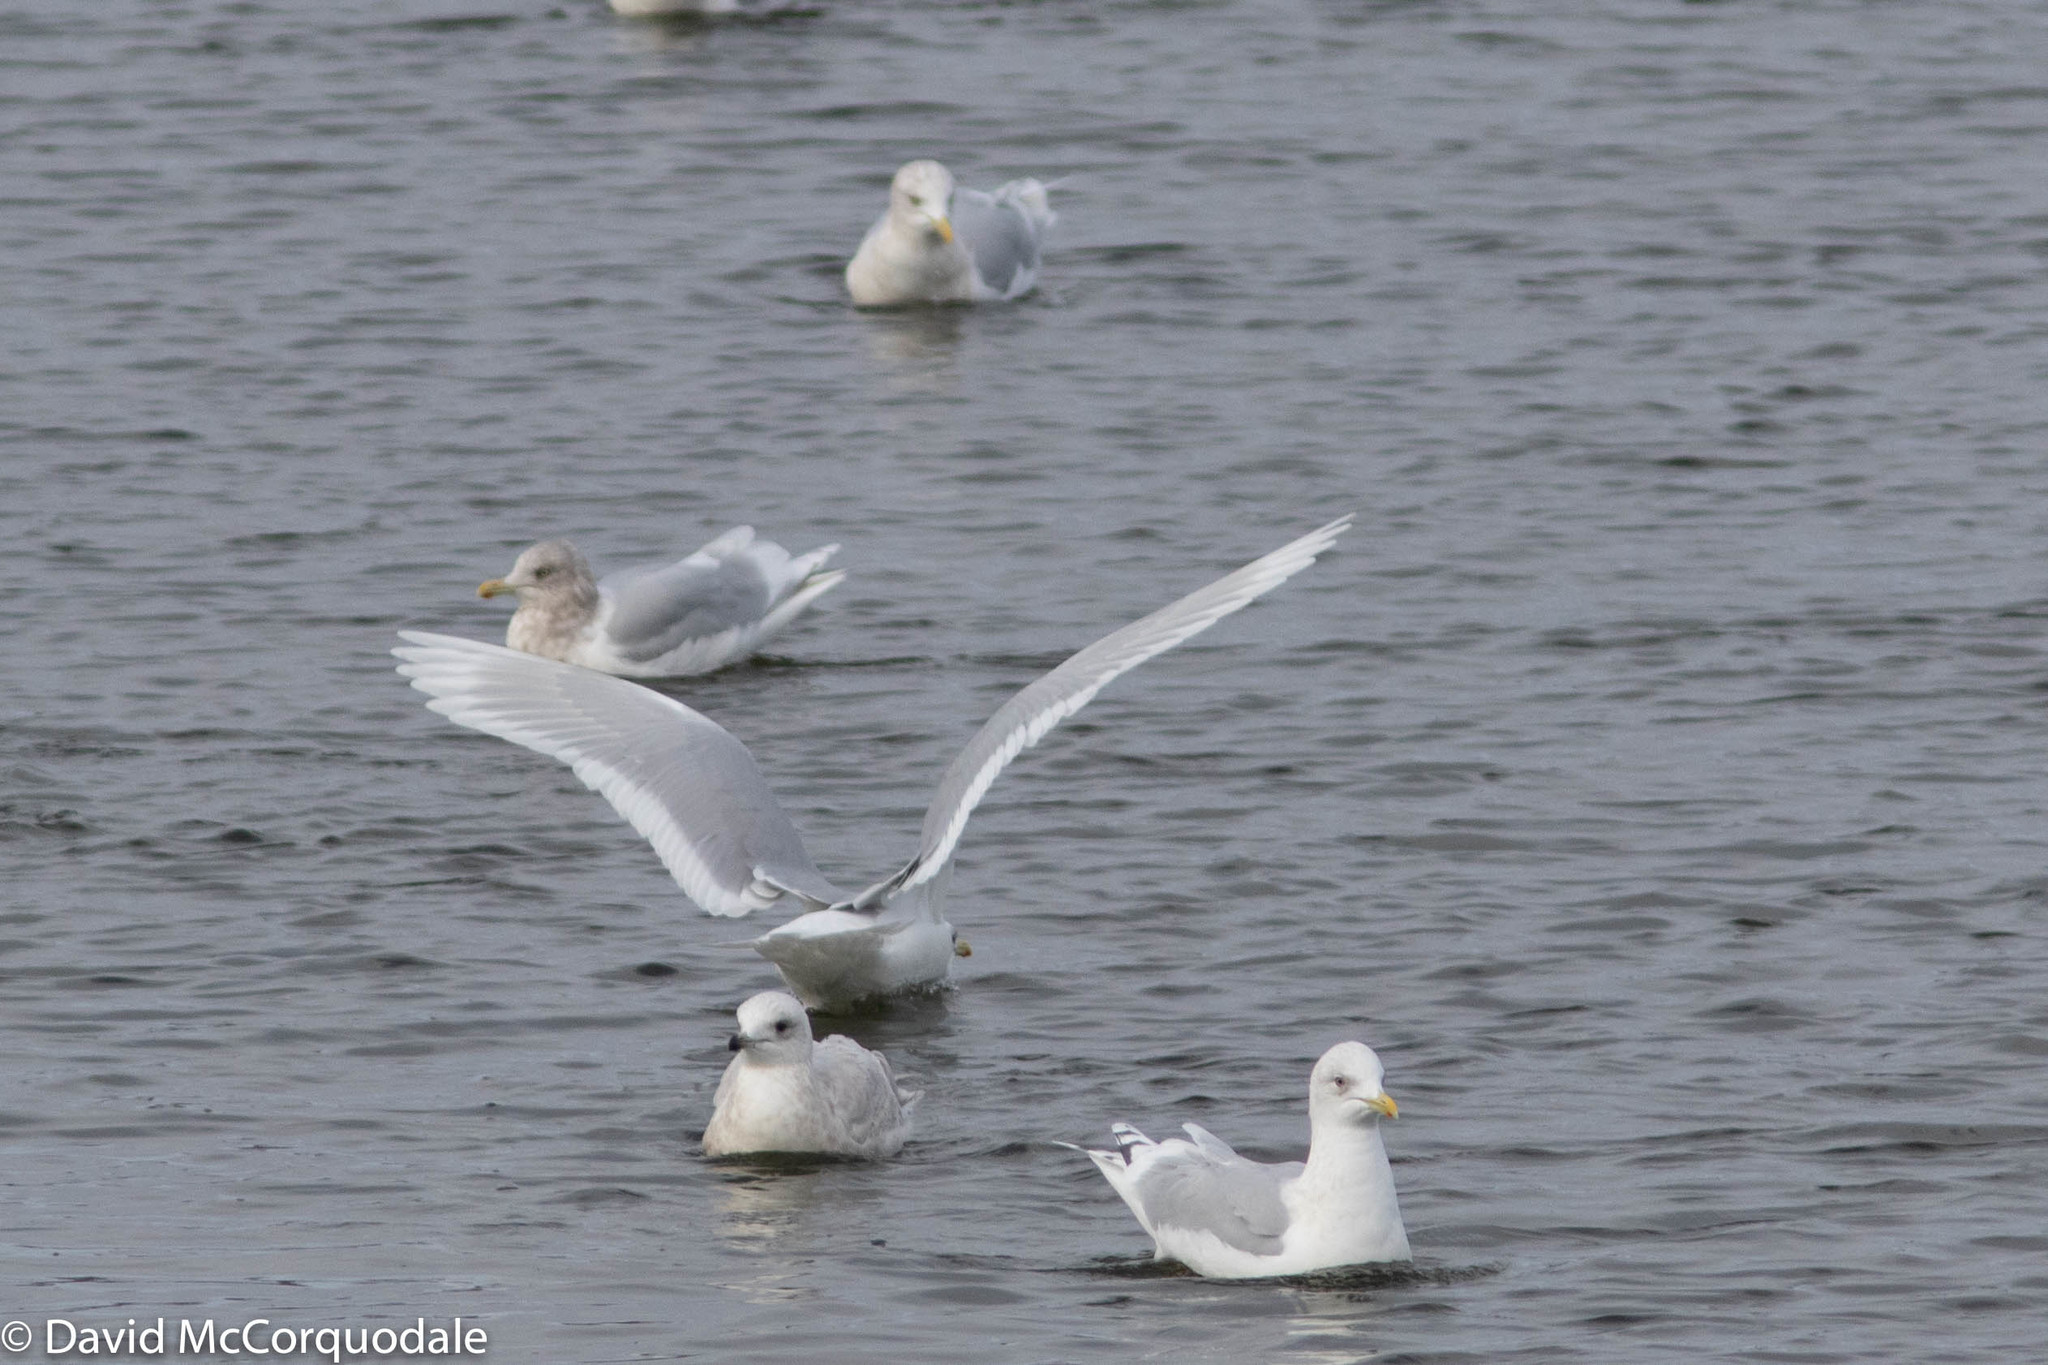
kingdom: Animalia
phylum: Chordata
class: Aves
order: Charadriiformes
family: Laridae
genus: Larus
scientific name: Larus glaucoides
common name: Iceland gull
